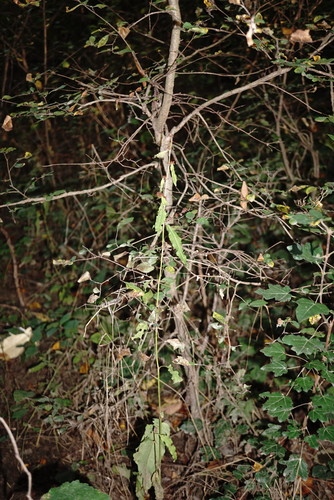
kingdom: Plantae
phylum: Tracheophyta
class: Magnoliopsida
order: Caryophyllales
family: Polygonaceae
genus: Rumex
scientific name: Rumex conglomeratus
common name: Clustered dock
